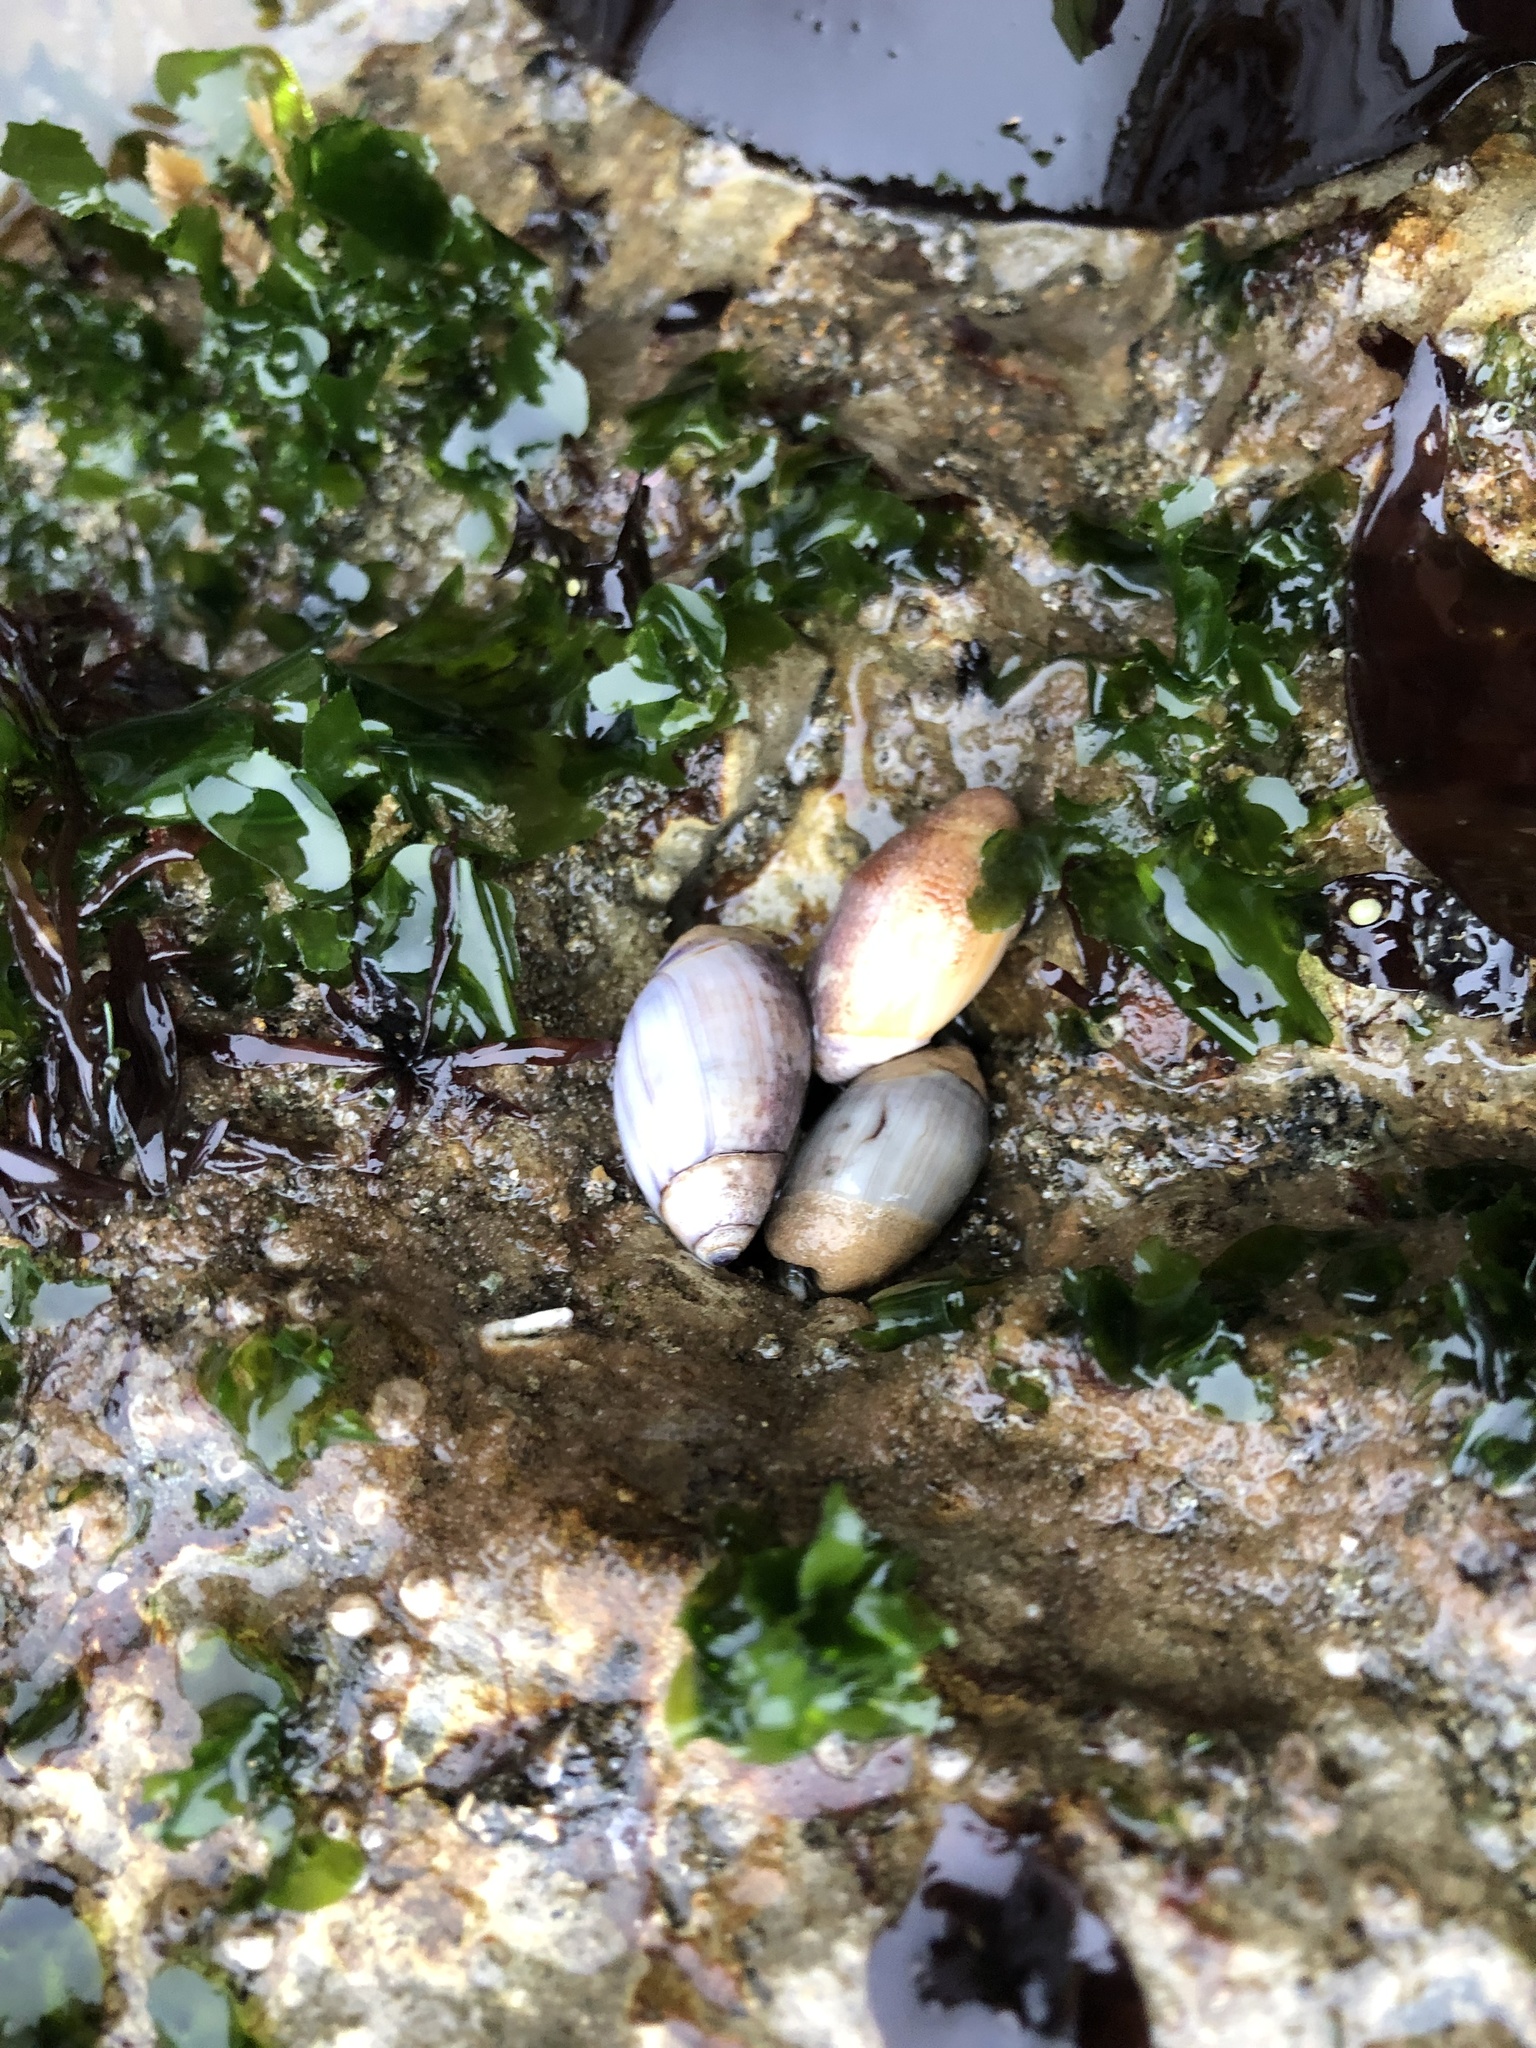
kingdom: Animalia
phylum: Mollusca
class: Gastropoda
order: Neogastropoda
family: Olividae
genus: Callianax
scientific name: Callianax biplicata
